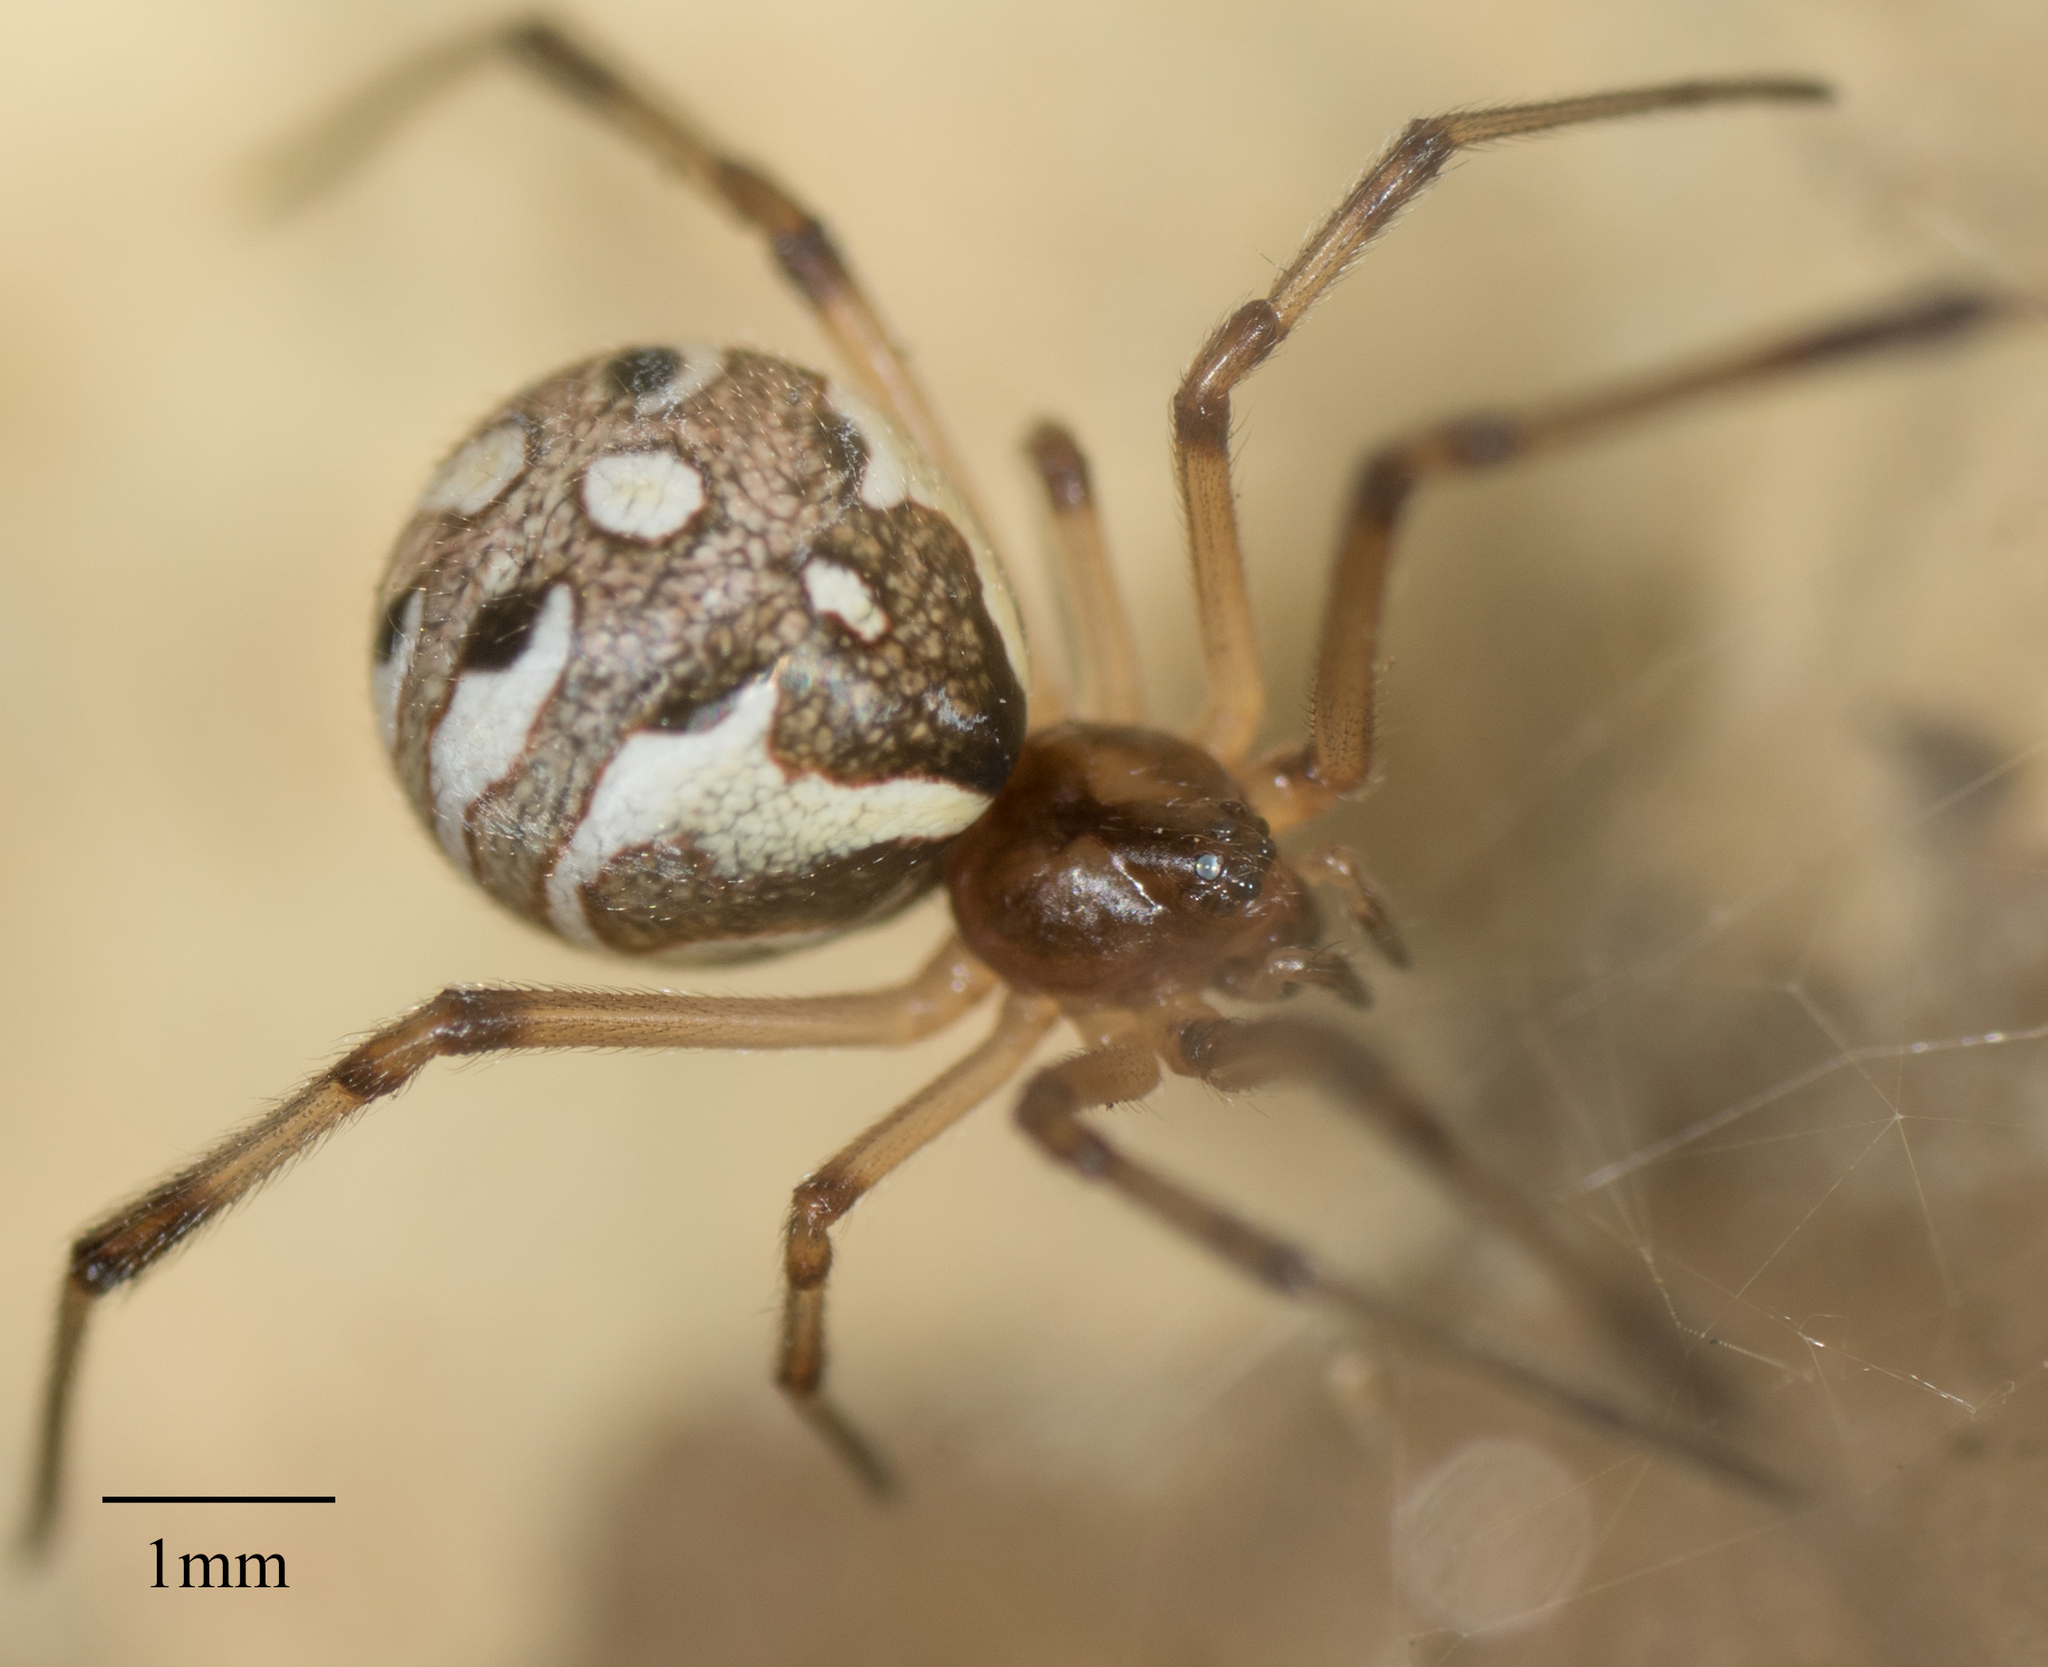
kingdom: Animalia
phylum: Arthropoda
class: Arachnida
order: Araneae
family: Theridiidae
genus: Latrodectus
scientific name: Latrodectus geometricus
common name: Brown widow spider
